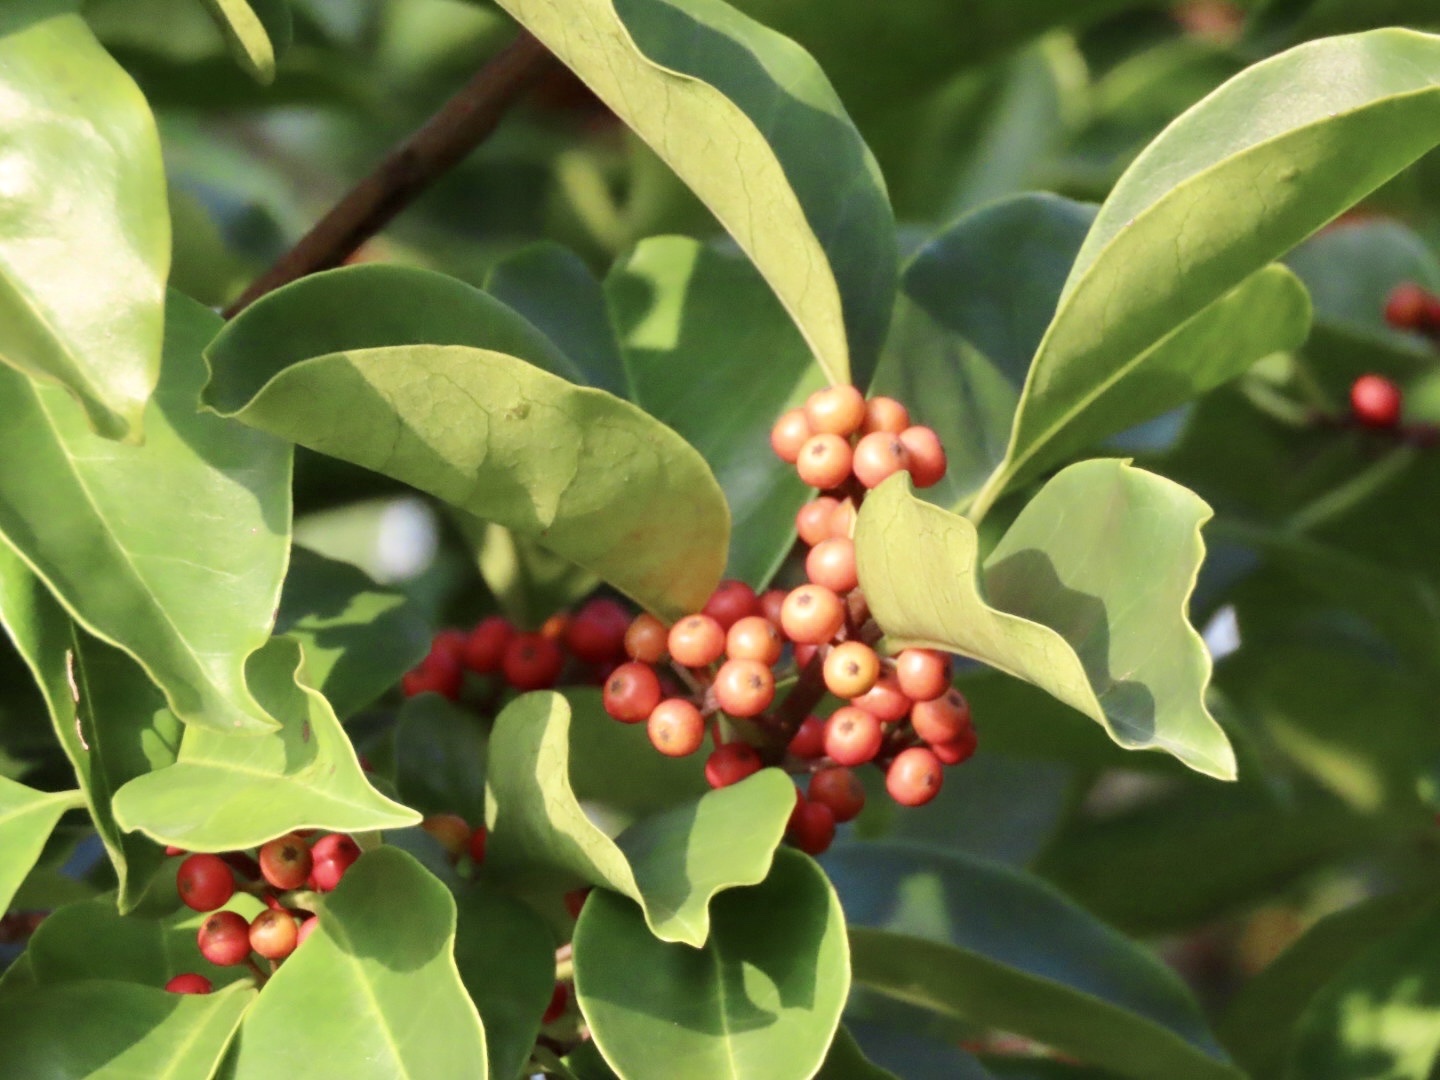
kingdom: Plantae
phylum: Tracheophyta
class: Magnoliopsida
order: Aquifoliales
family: Aquifoliaceae
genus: Ilex
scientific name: Ilex rotunda
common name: Kurogane holly
